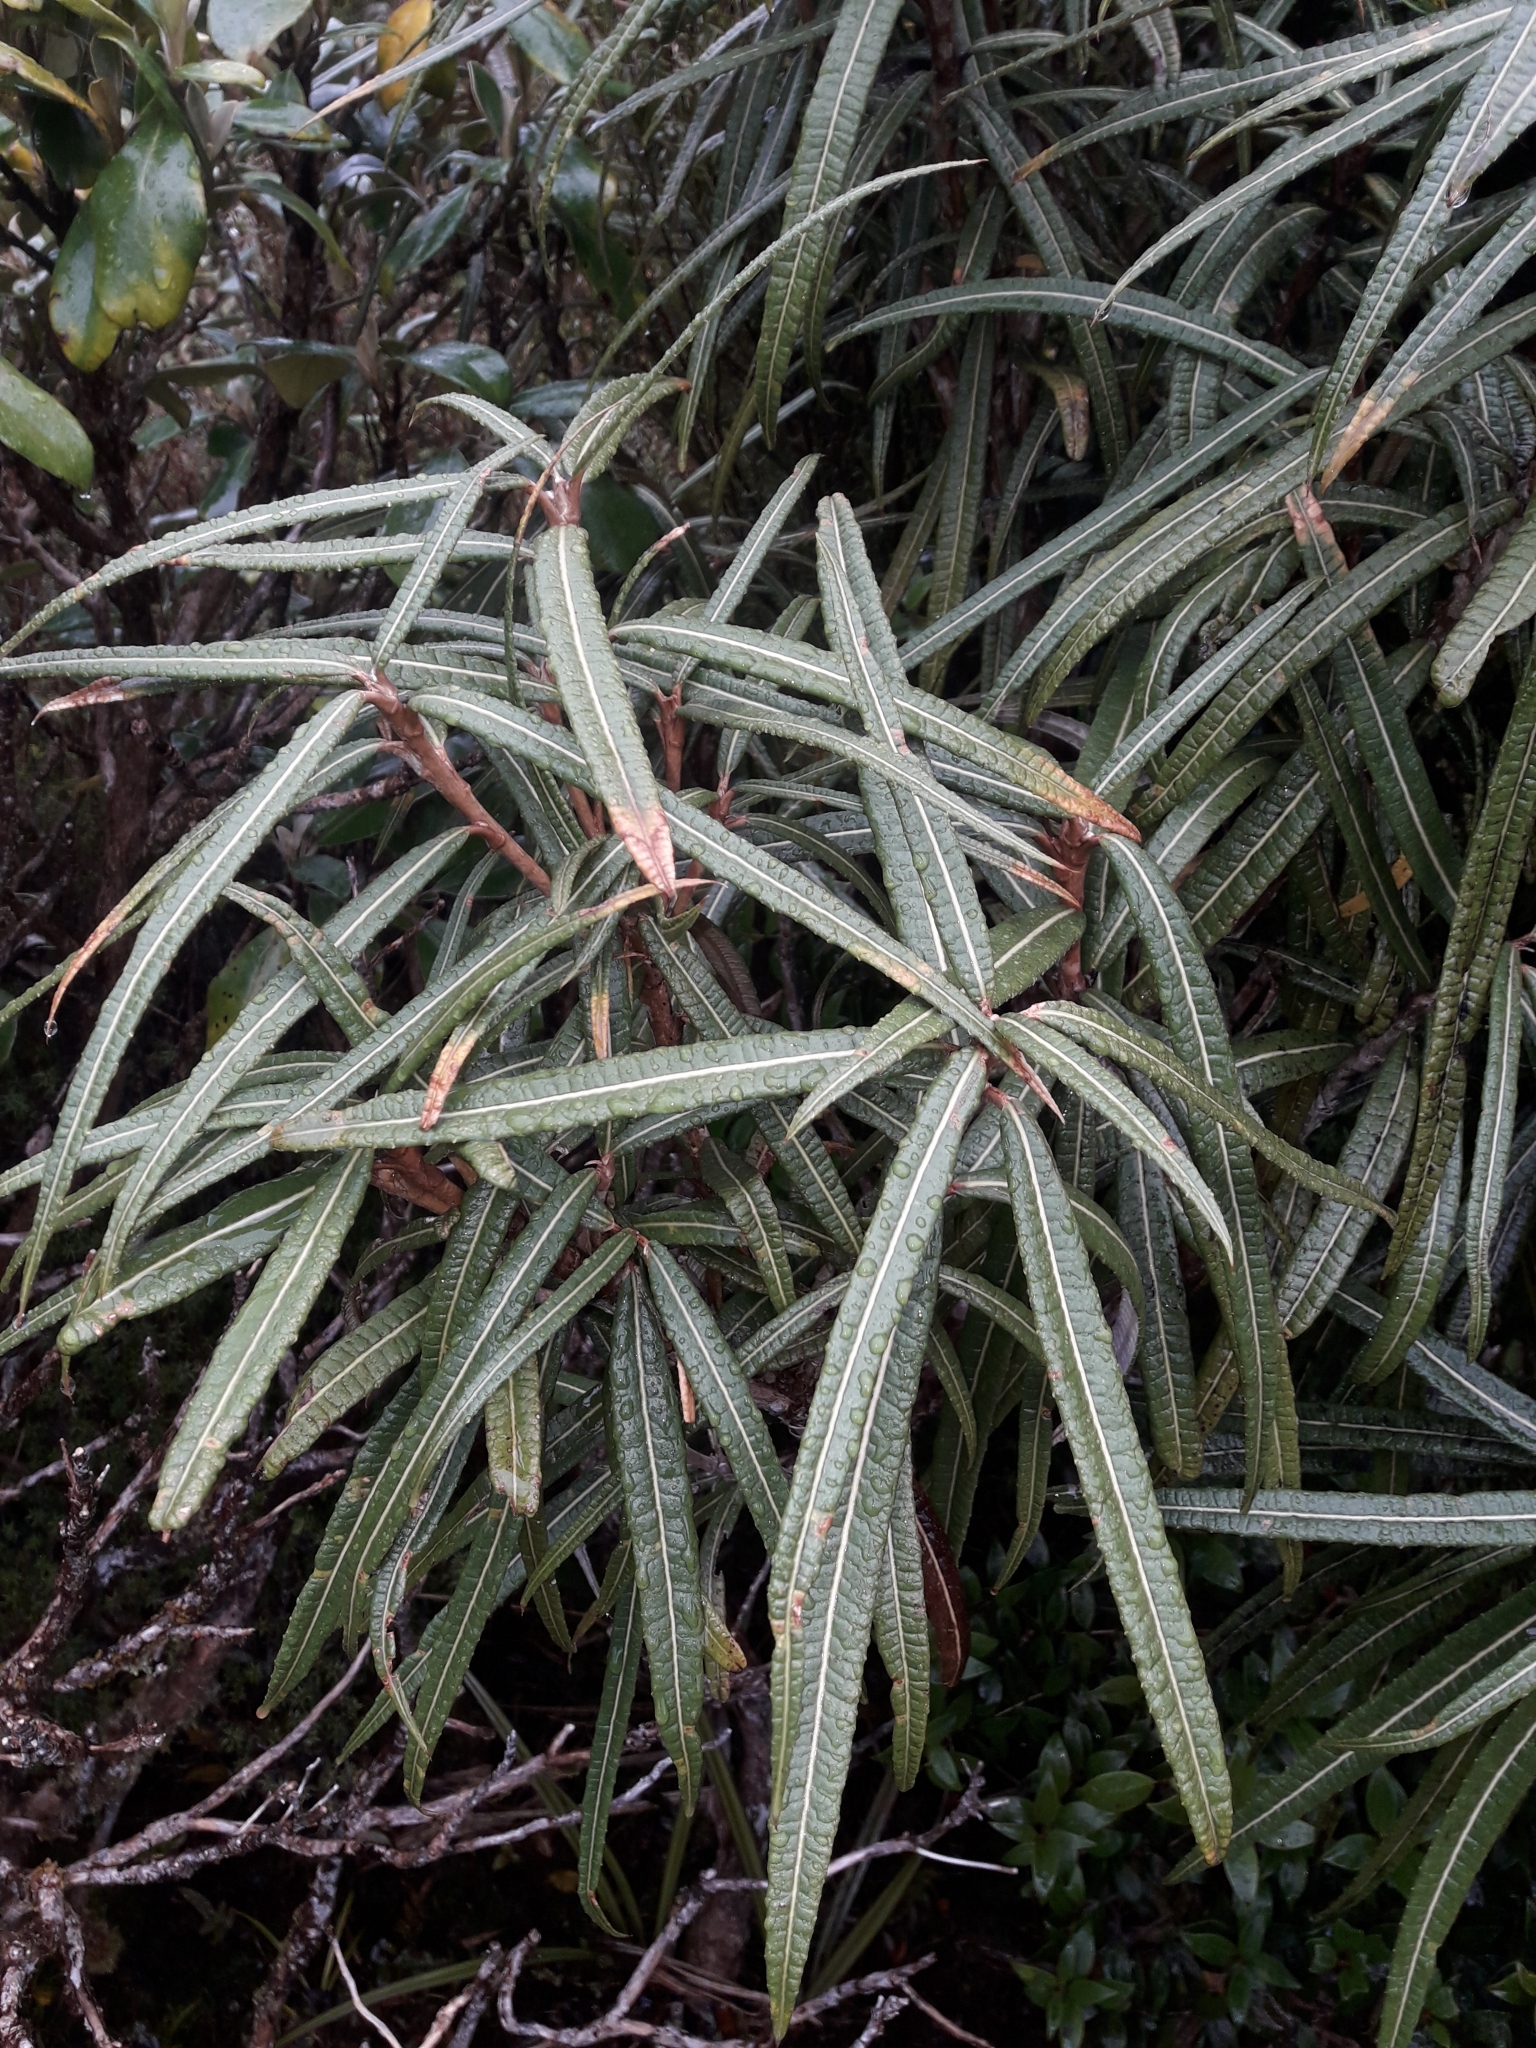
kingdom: Plantae
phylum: Tracheophyta
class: Magnoliopsida
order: Asterales
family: Asteraceae
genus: Olearia
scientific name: Olearia lacunosa
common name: Lancewood tree daisy
